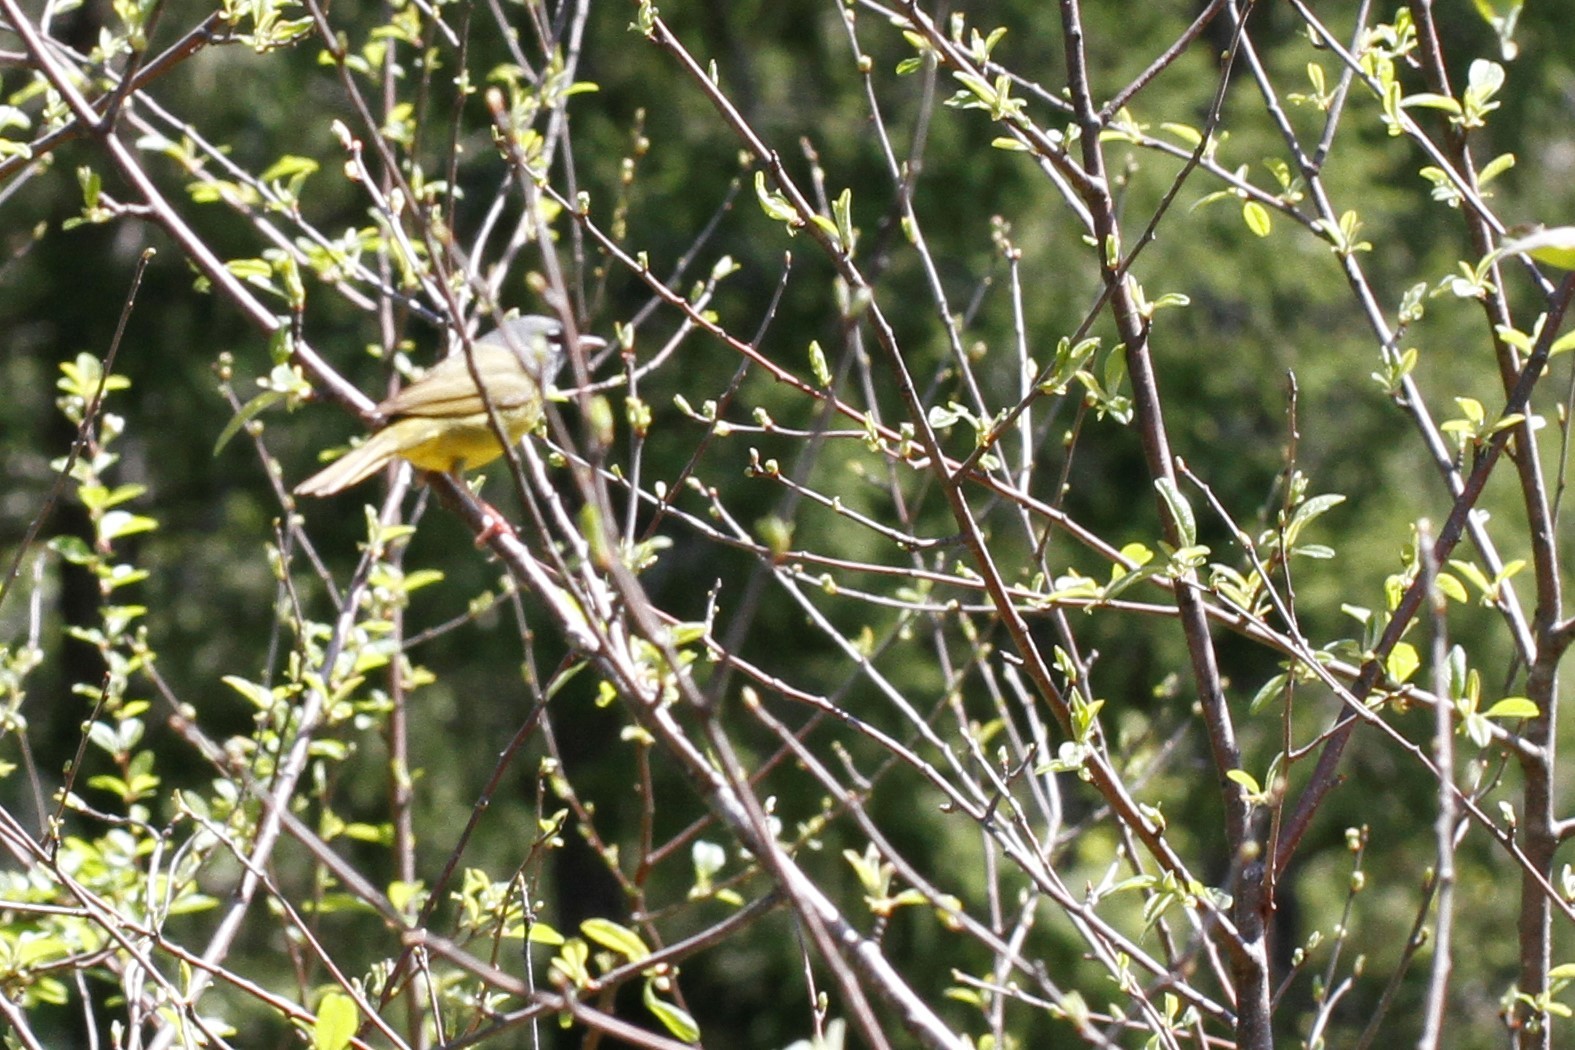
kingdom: Animalia
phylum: Chordata
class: Aves
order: Passeriformes
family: Parulidae
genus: Geothlypis
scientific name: Geothlypis tolmiei
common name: Macgillivray's warbler
